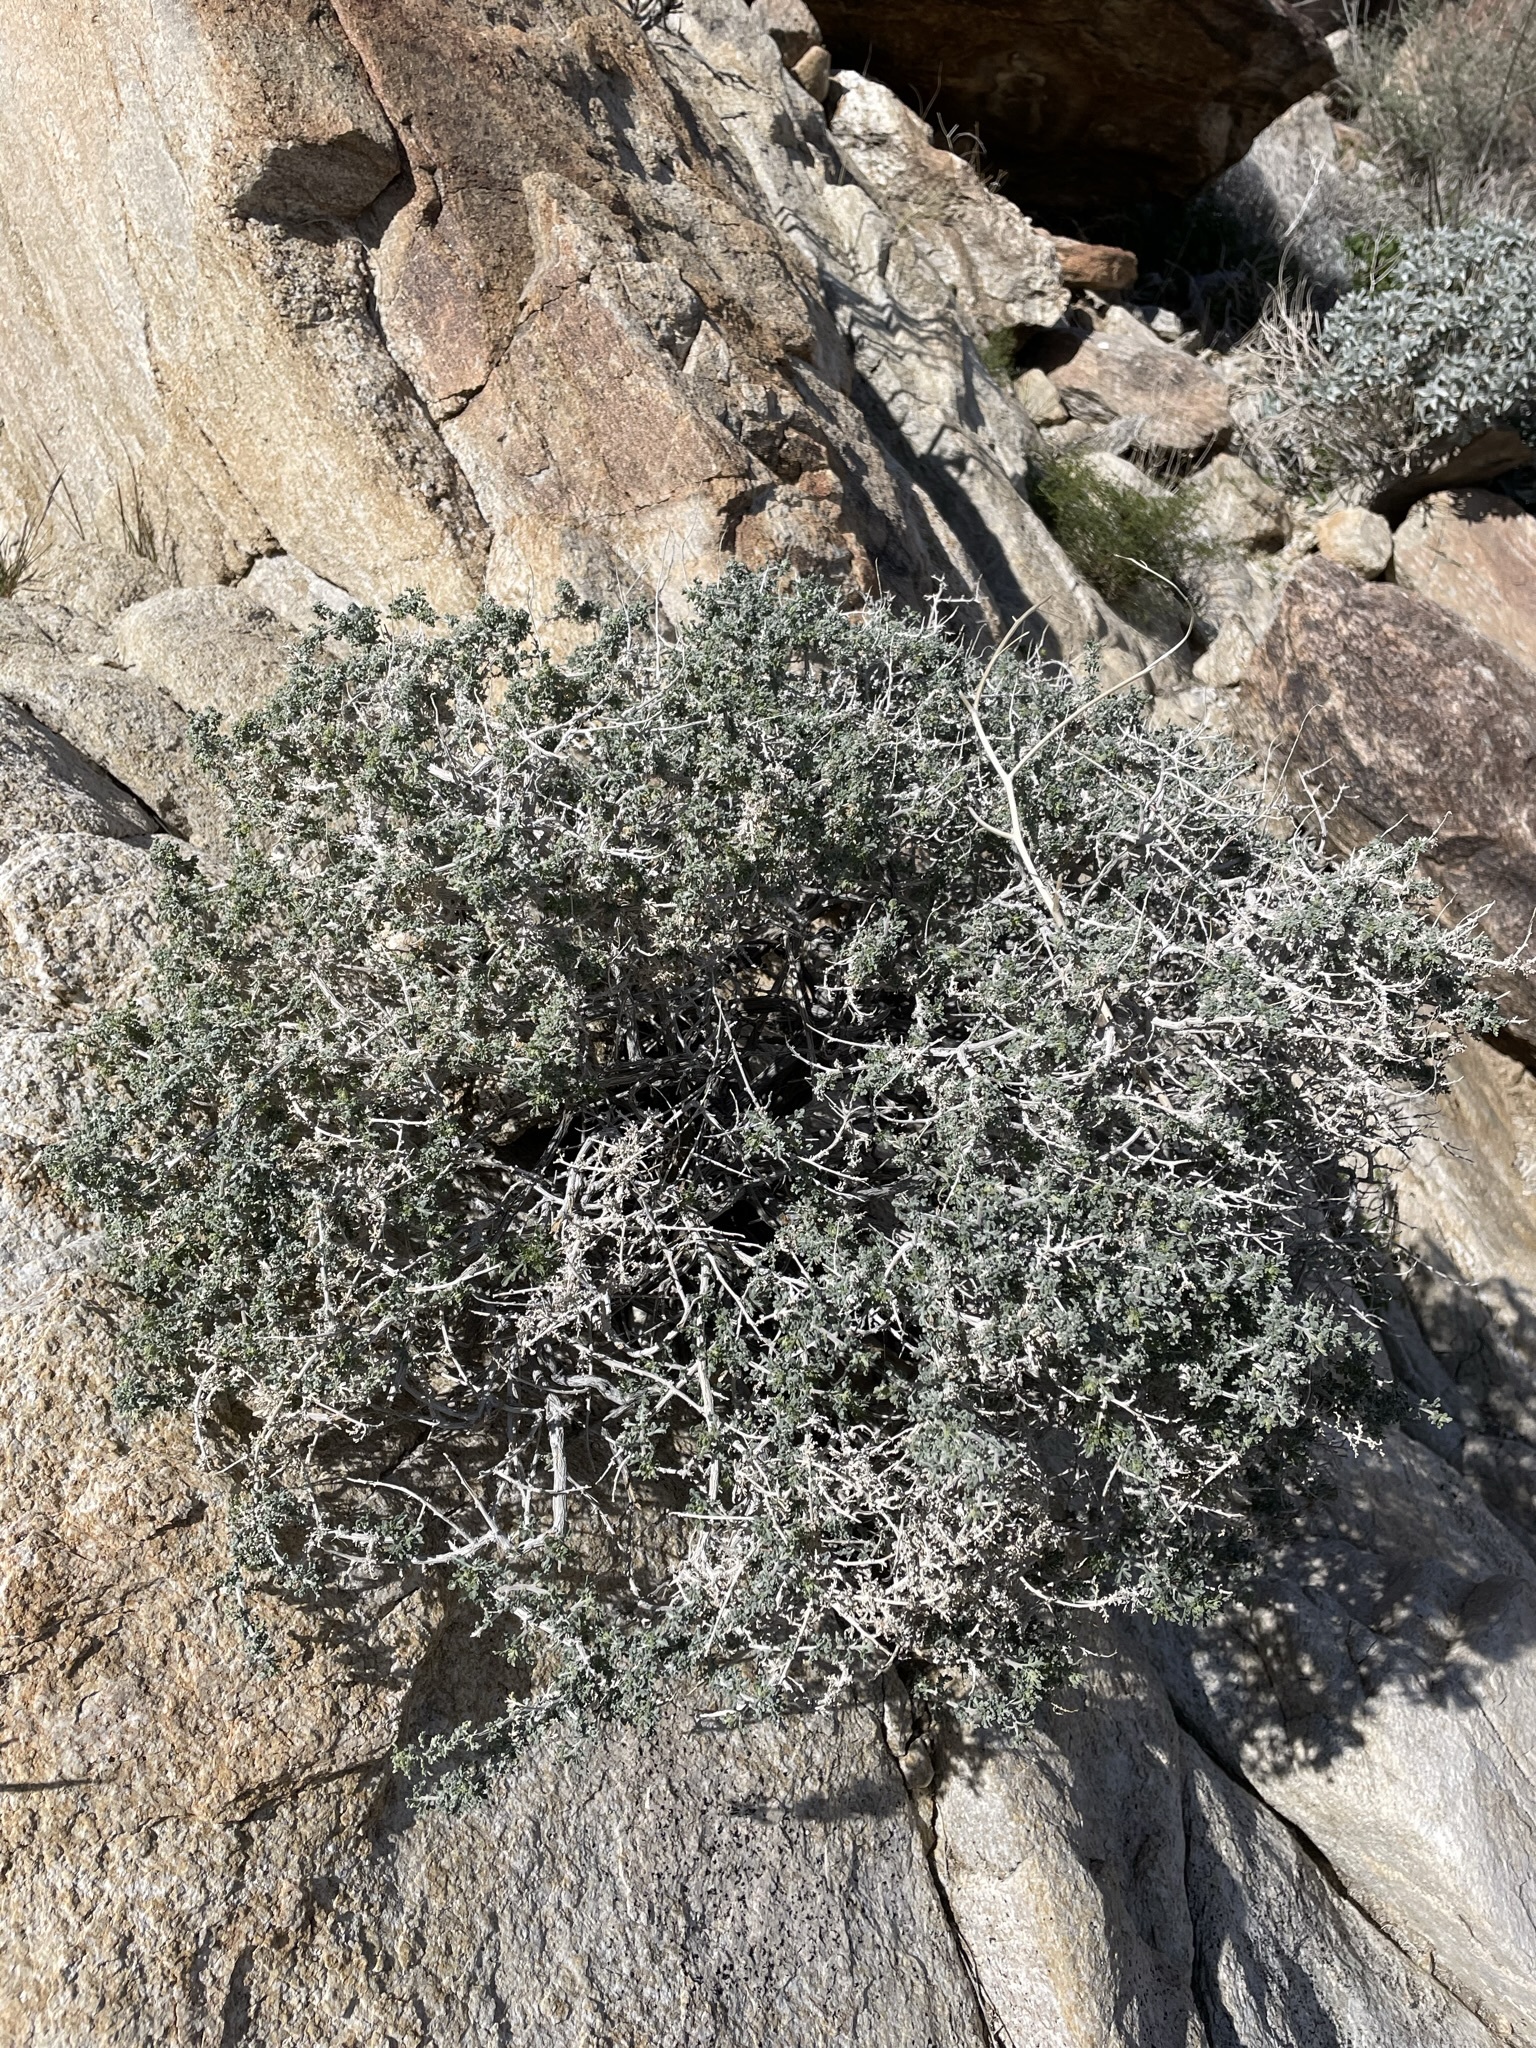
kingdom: Plantae
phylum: Tracheophyta
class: Magnoliopsida
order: Asterales
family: Asteraceae
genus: Ambrosia
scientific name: Ambrosia dumosa
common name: Bur-sage
